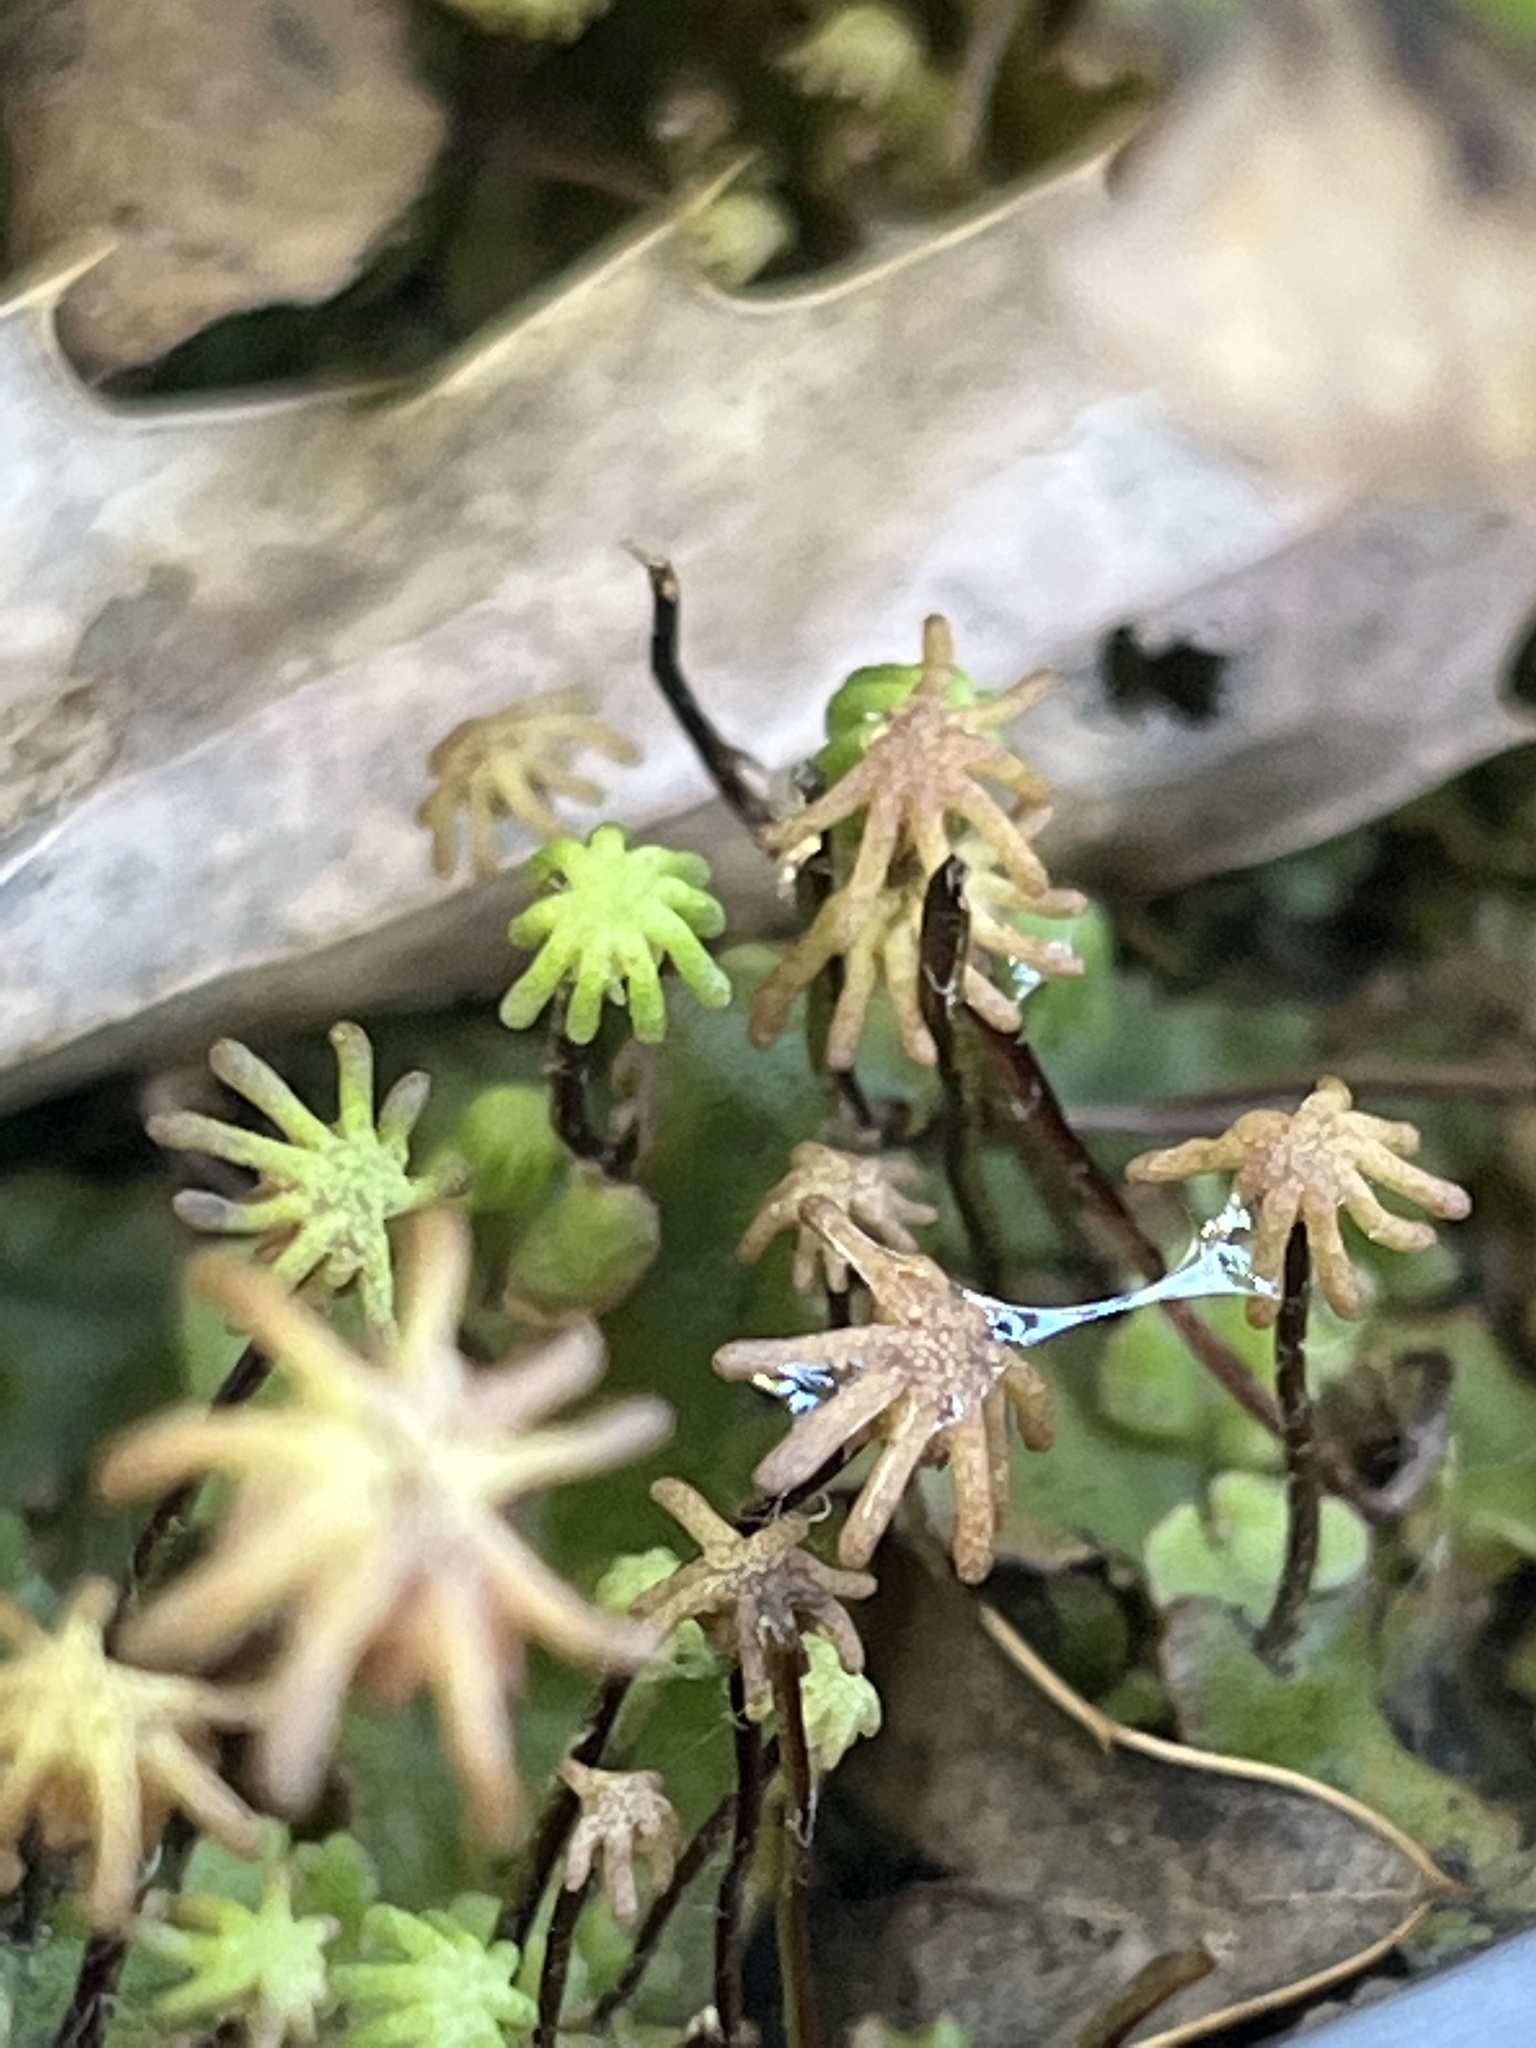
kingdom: Plantae
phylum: Marchantiophyta
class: Marchantiopsida
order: Marchantiales
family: Marchantiaceae
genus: Marchantia
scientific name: Marchantia polymorpha
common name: Common liverwort
